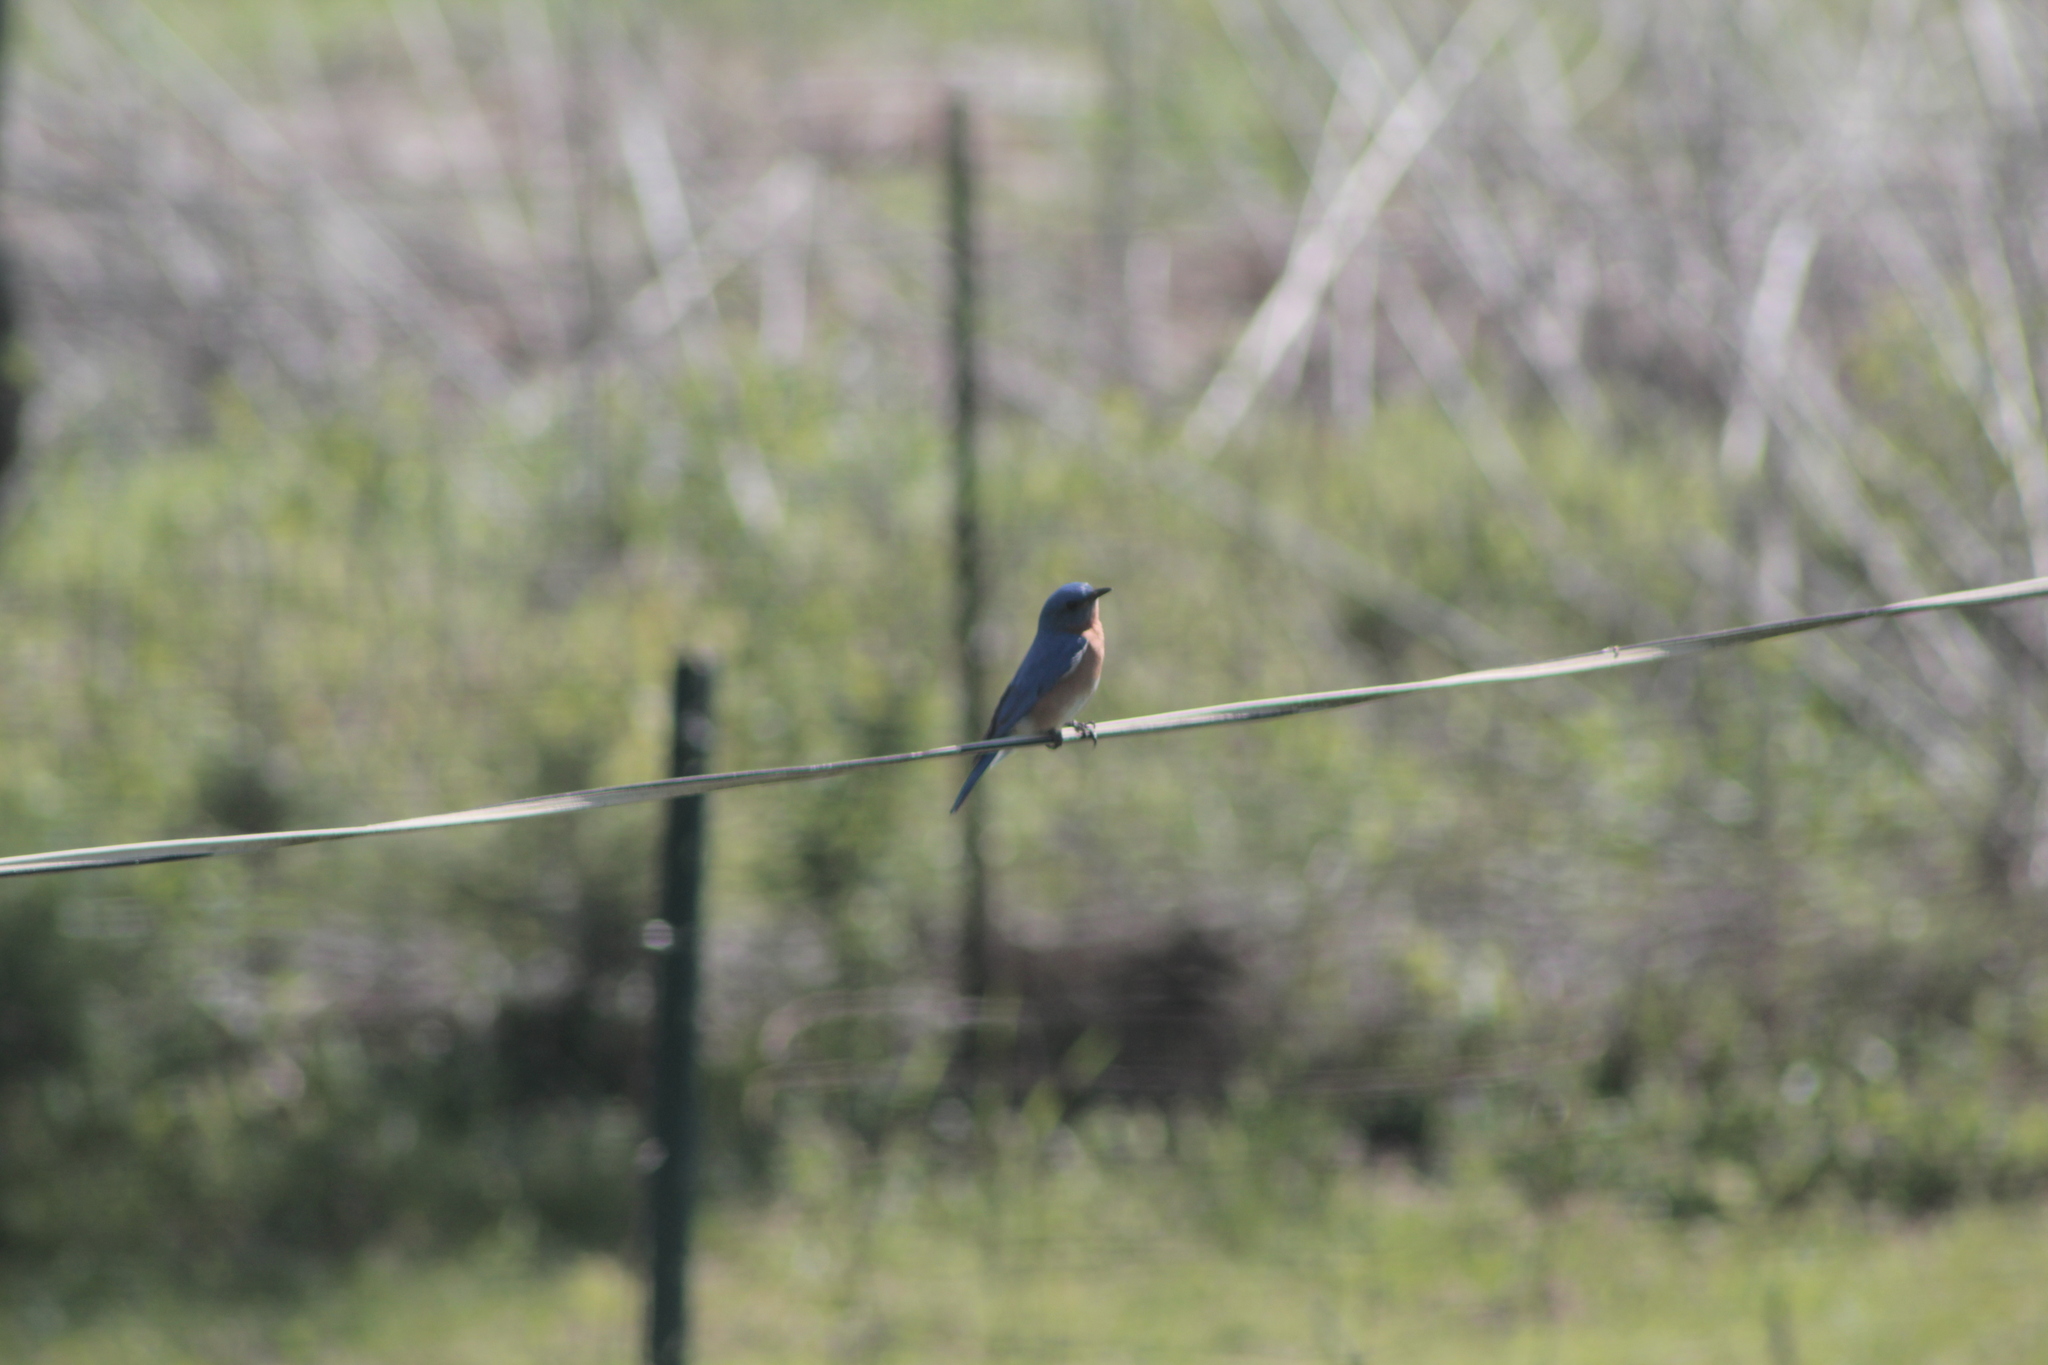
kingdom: Animalia
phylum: Chordata
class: Aves
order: Passeriformes
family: Turdidae
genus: Sialia
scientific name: Sialia sialis
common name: Eastern bluebird
